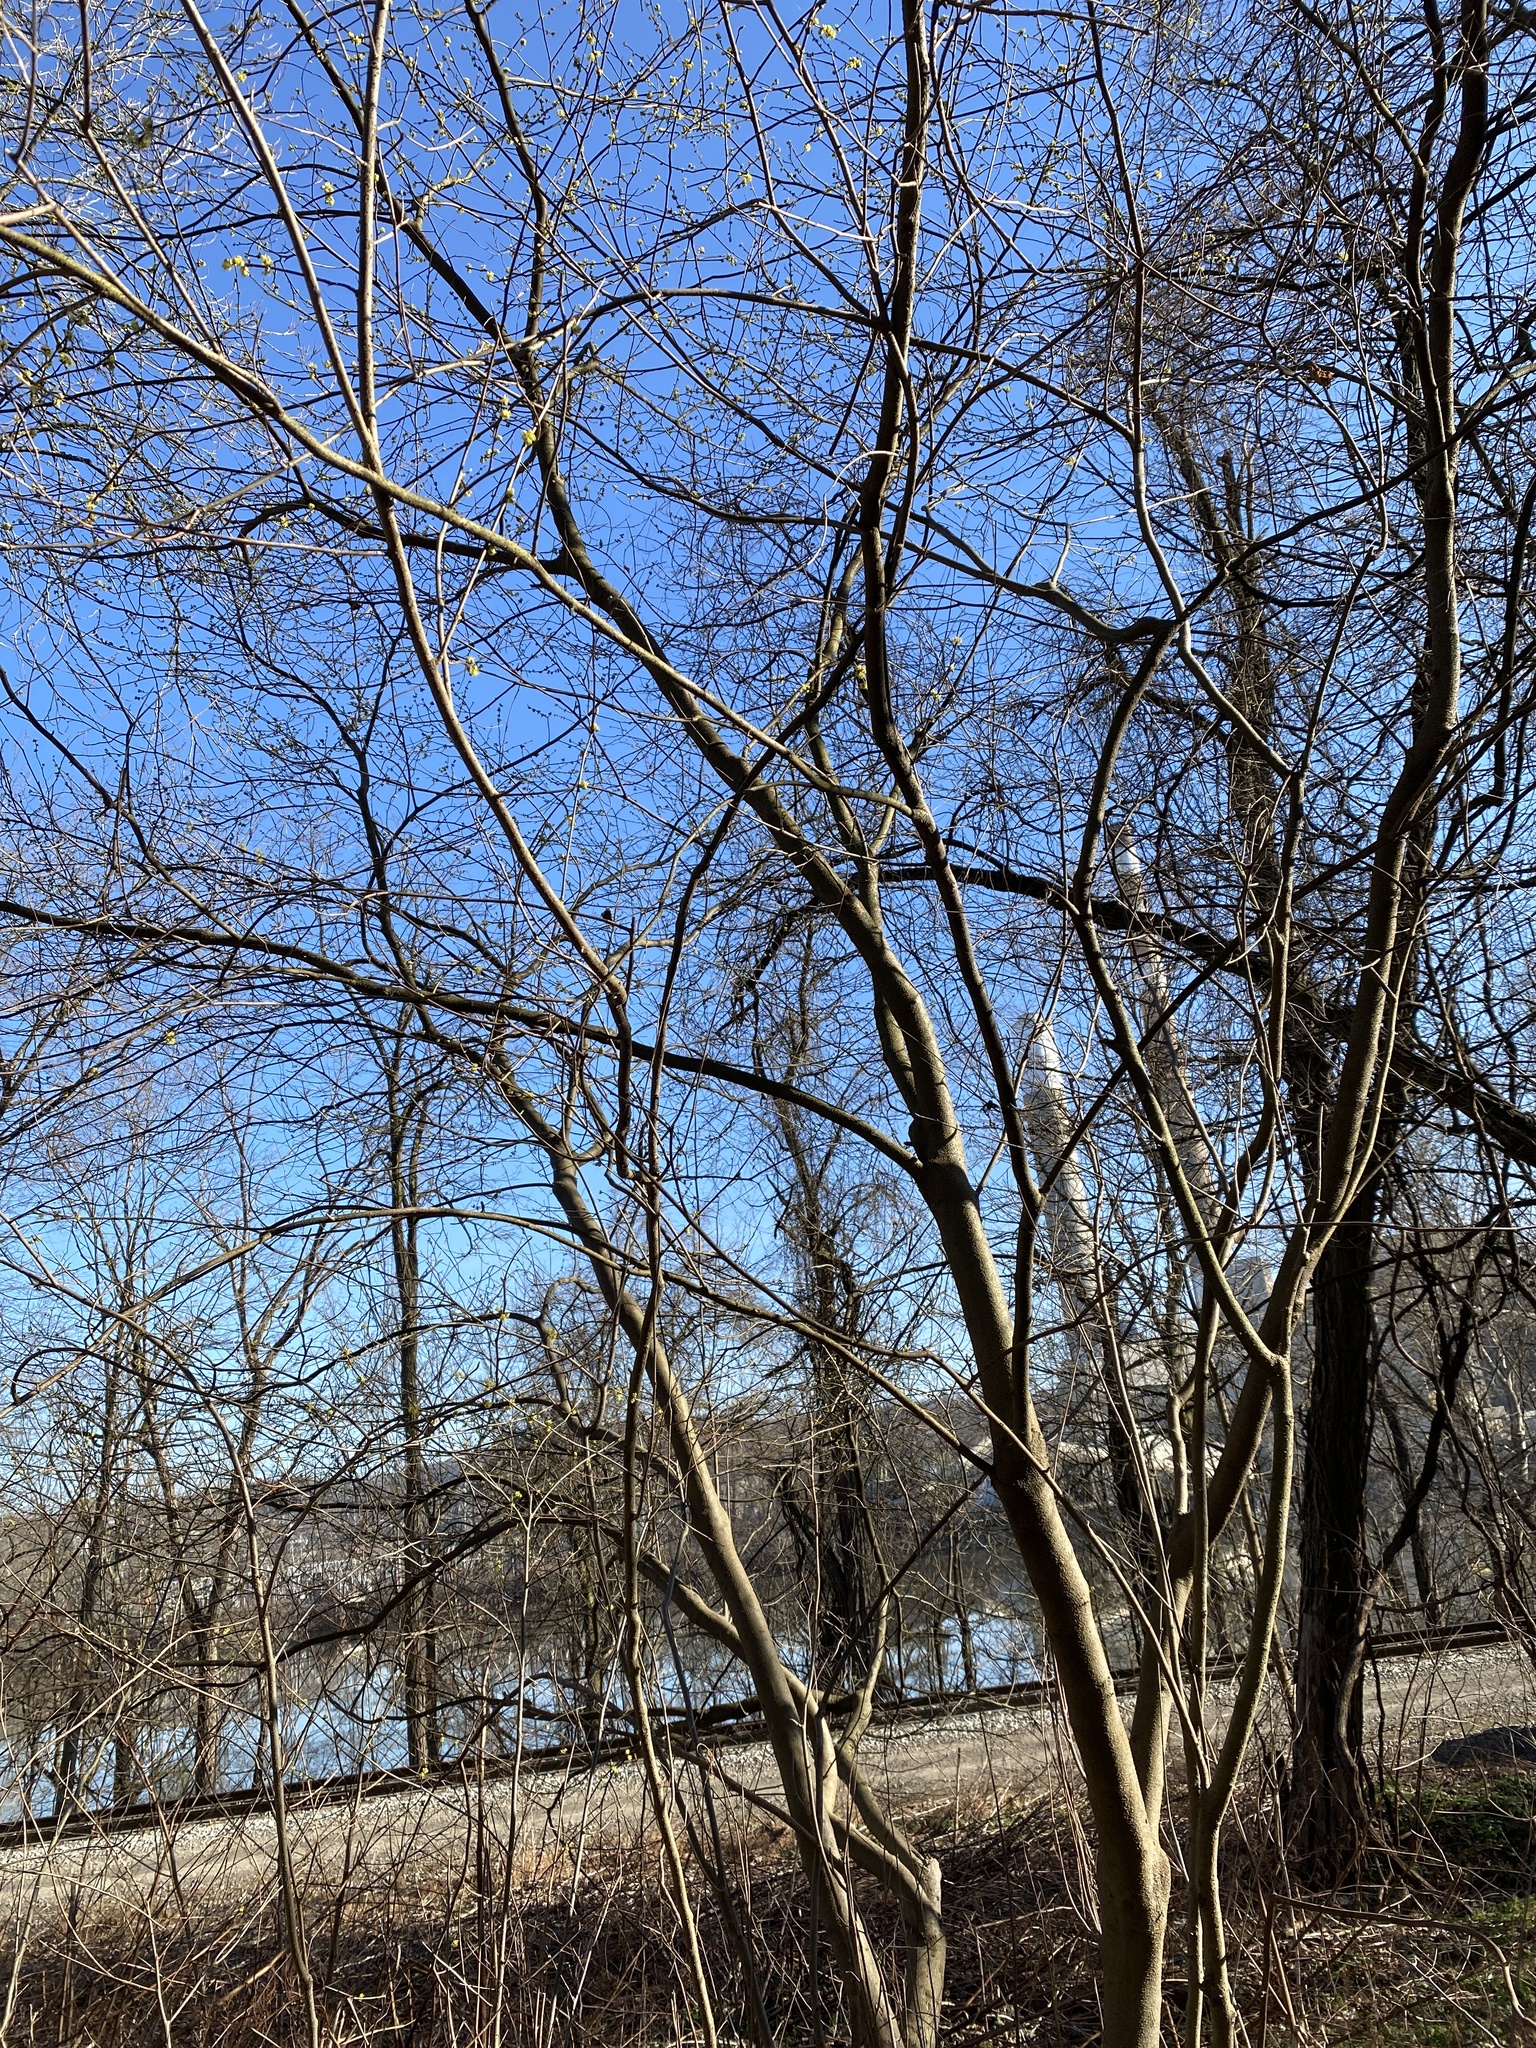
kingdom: Plantae
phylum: Tracheophyta
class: Magnoliopsida
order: Laurales
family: Lauraceae
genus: Lindera
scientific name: Lindera benzoin
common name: Spicebush
